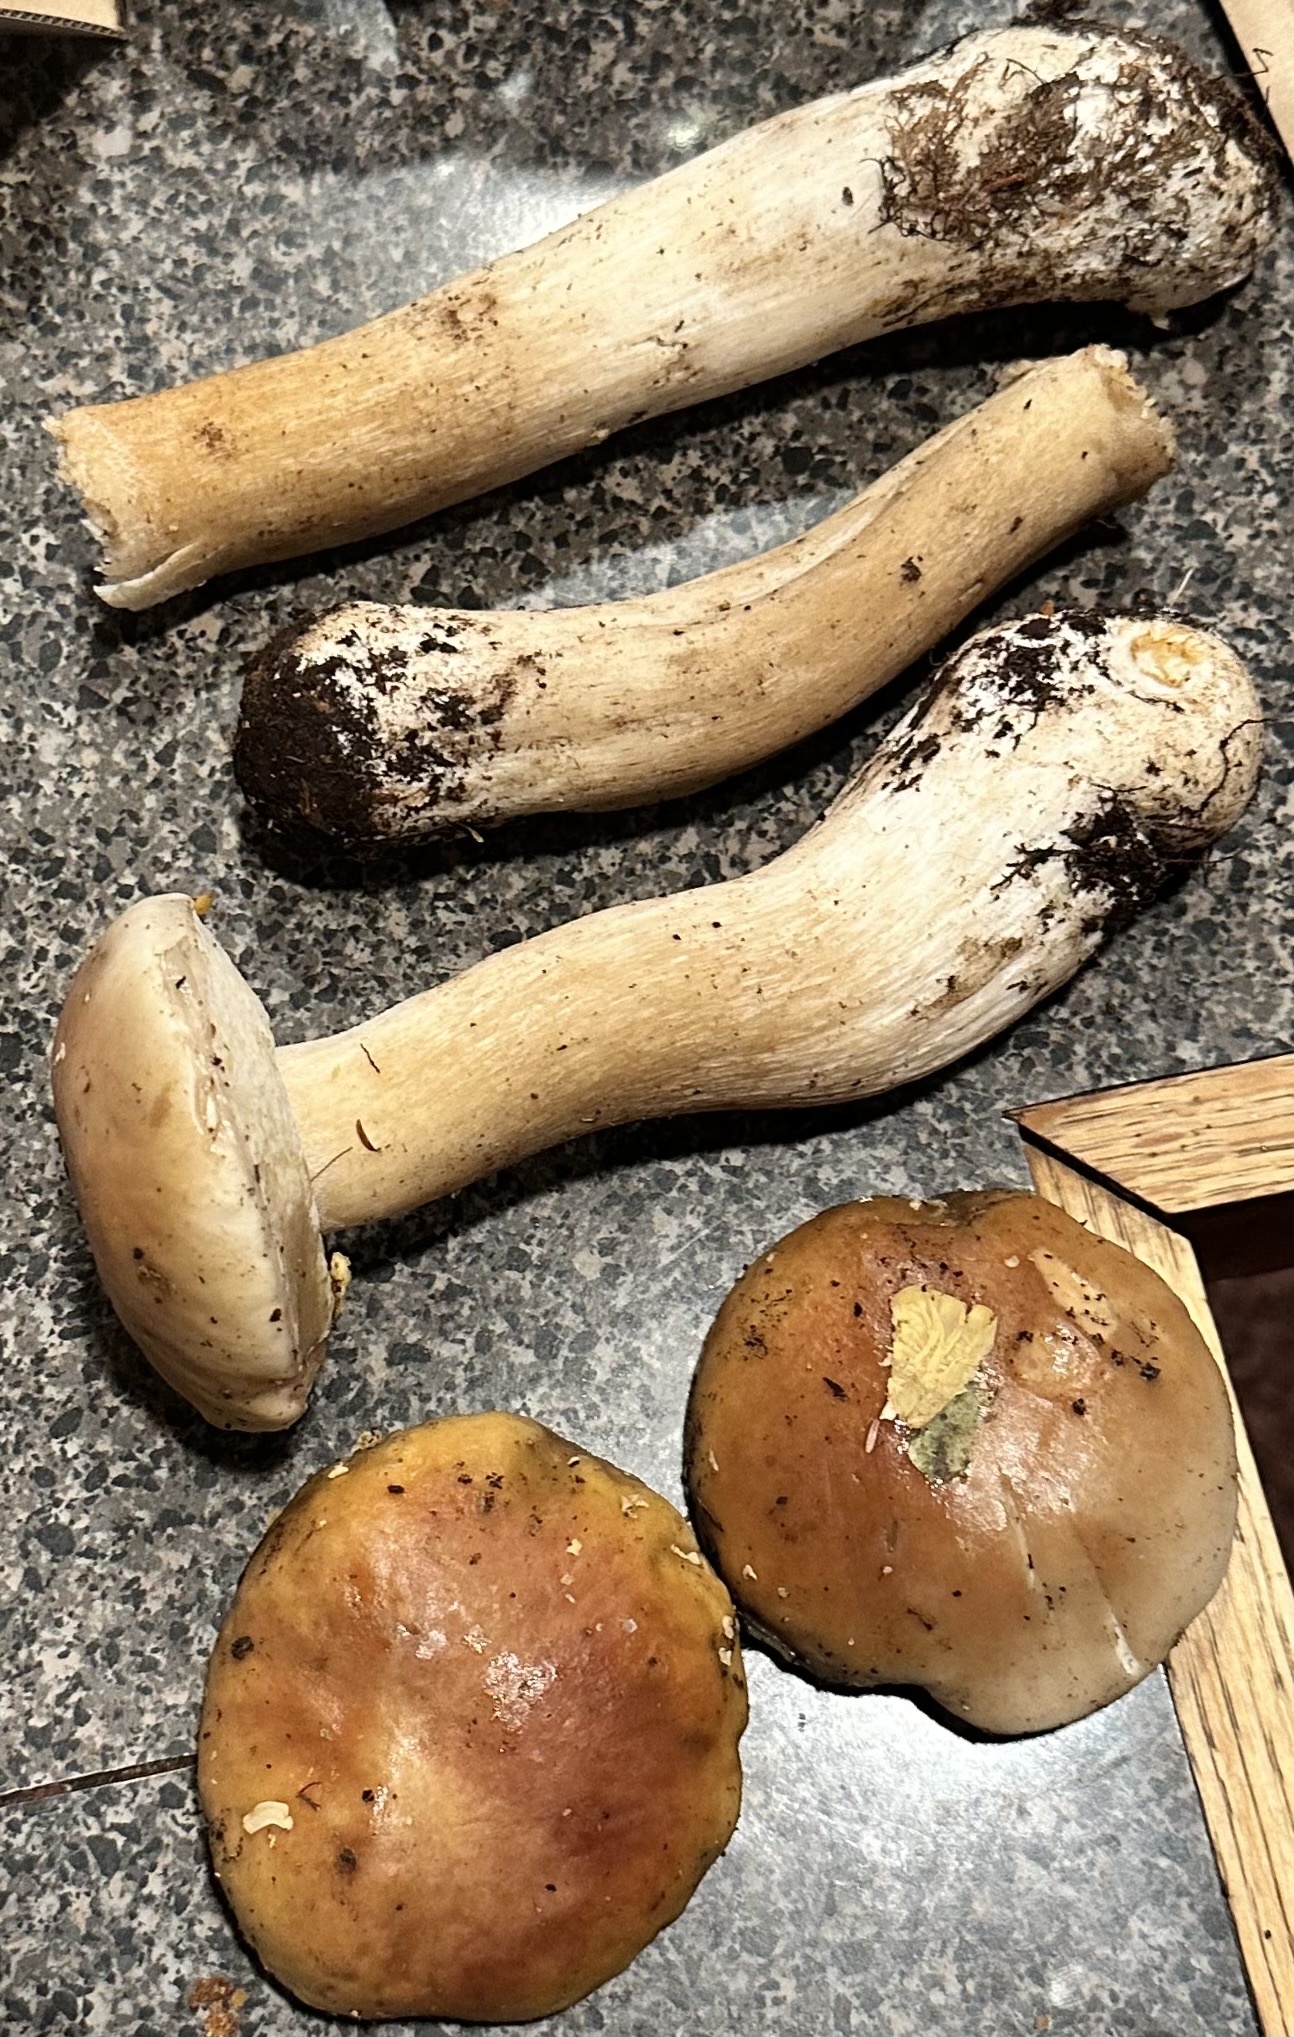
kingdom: Fungi
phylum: Basidiomycota
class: Agaricomycetes
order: Boletales
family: Boletaceae
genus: Boletus
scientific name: Boletus edulis
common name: Cep
